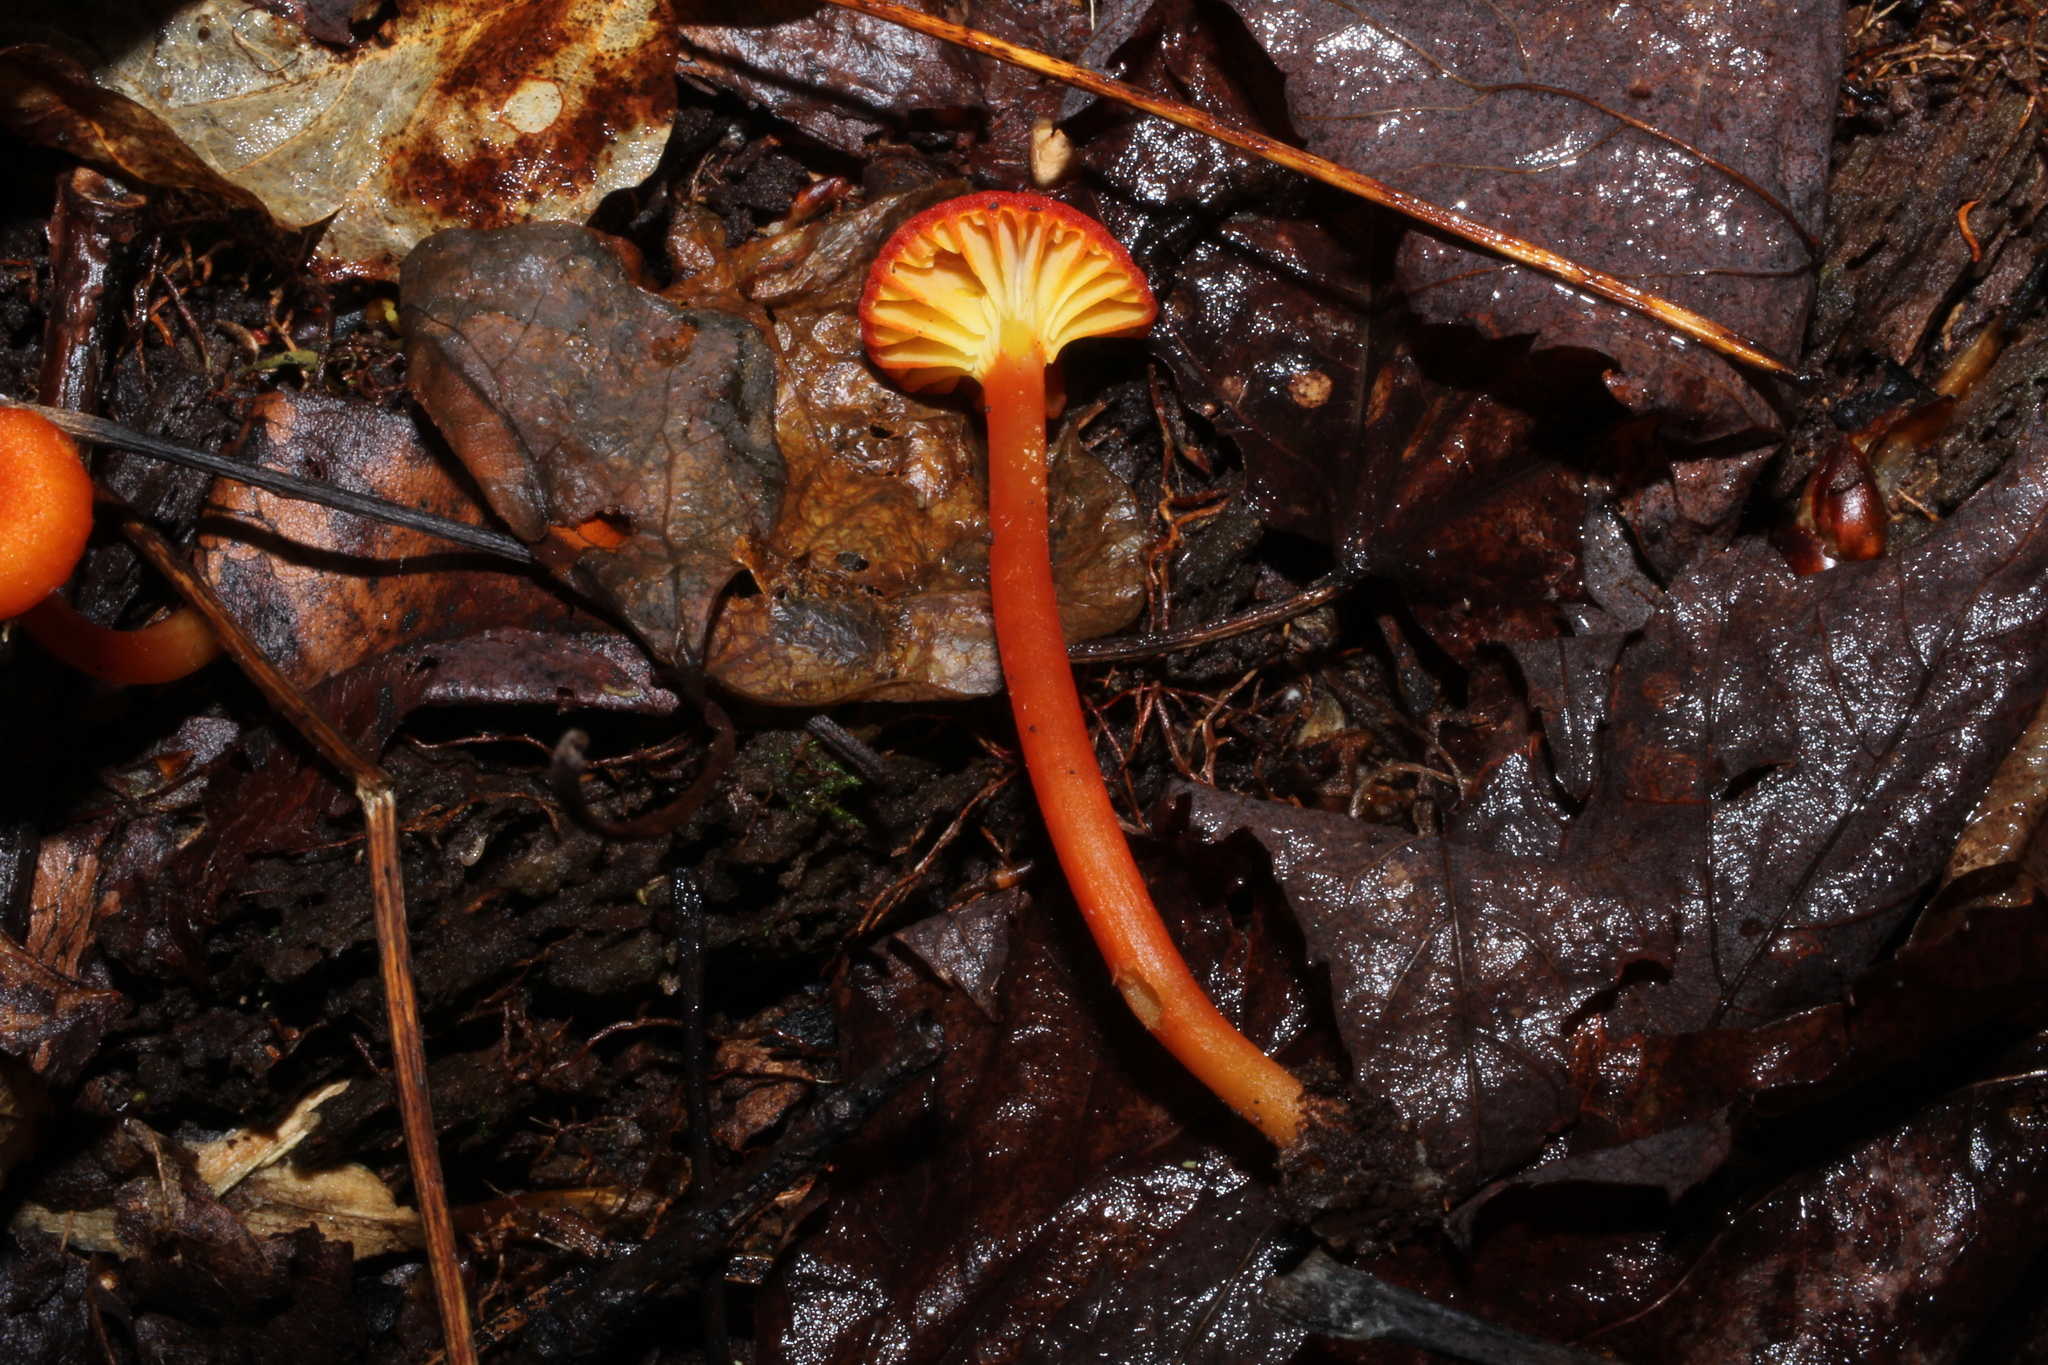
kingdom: Fungi
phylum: Basidiomycota
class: Agaricomycetes
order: Agaricales
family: Hygrophoraceae
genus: Hygrocybe
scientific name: Hygrocybe cantharellus
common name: Goblet waxcap
